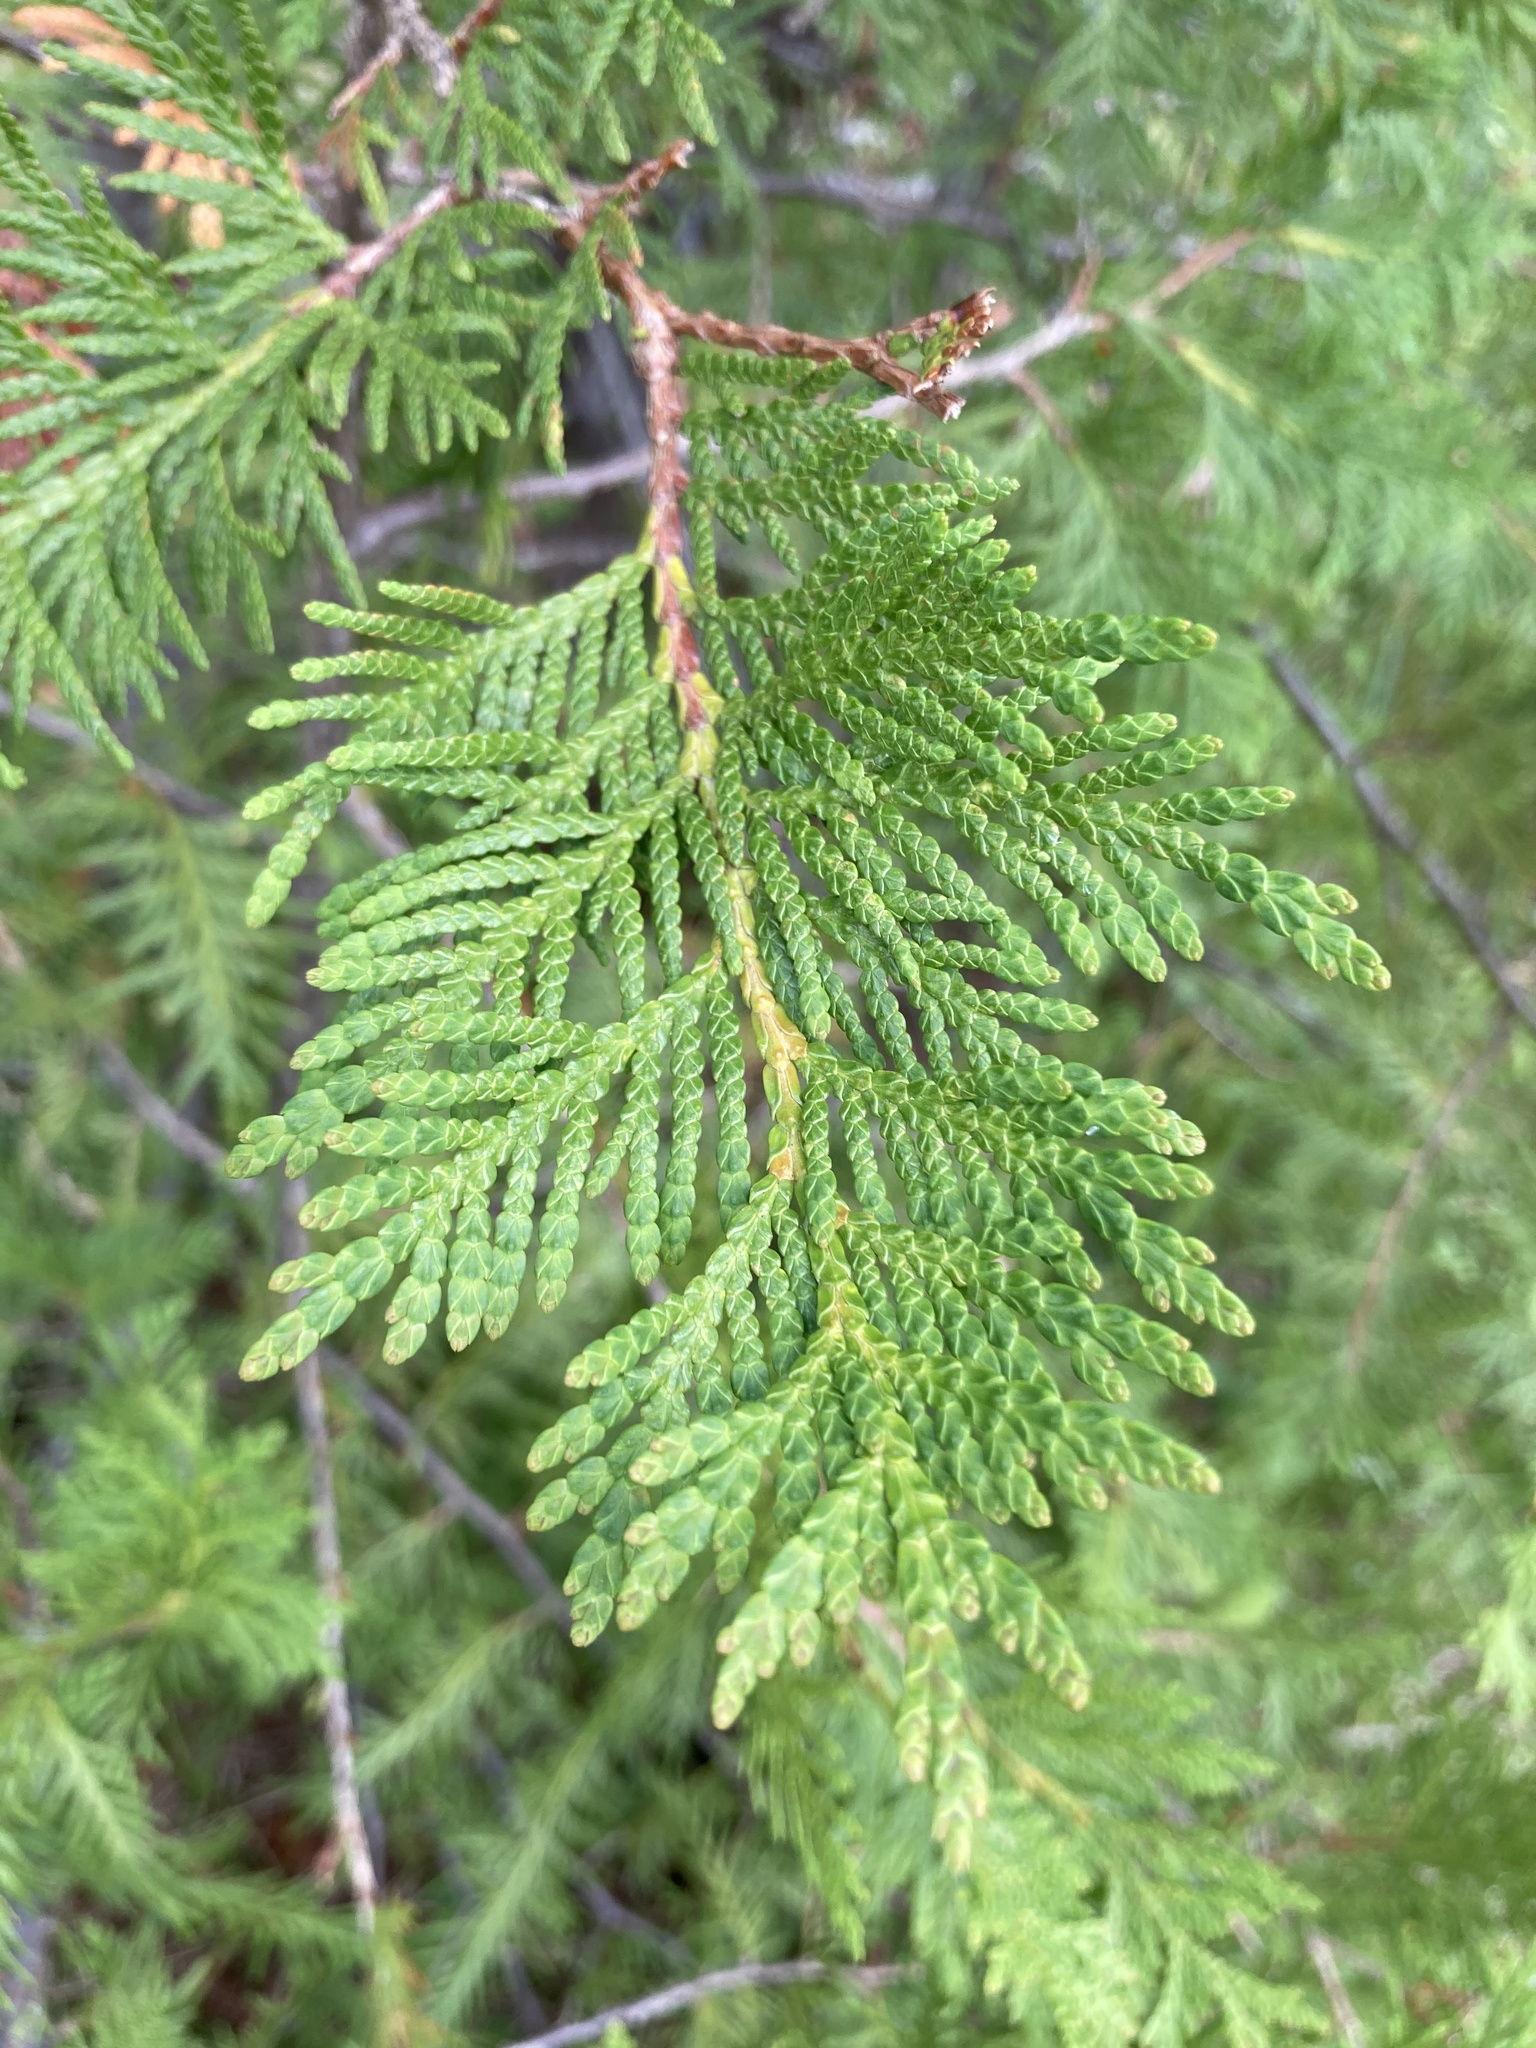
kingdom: Plantae
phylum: Tracheophyta
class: Pinopsida
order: Pinales
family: Cupressaceae
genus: Thuja
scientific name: Thuja occidentalis
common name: Northern white-cedar
